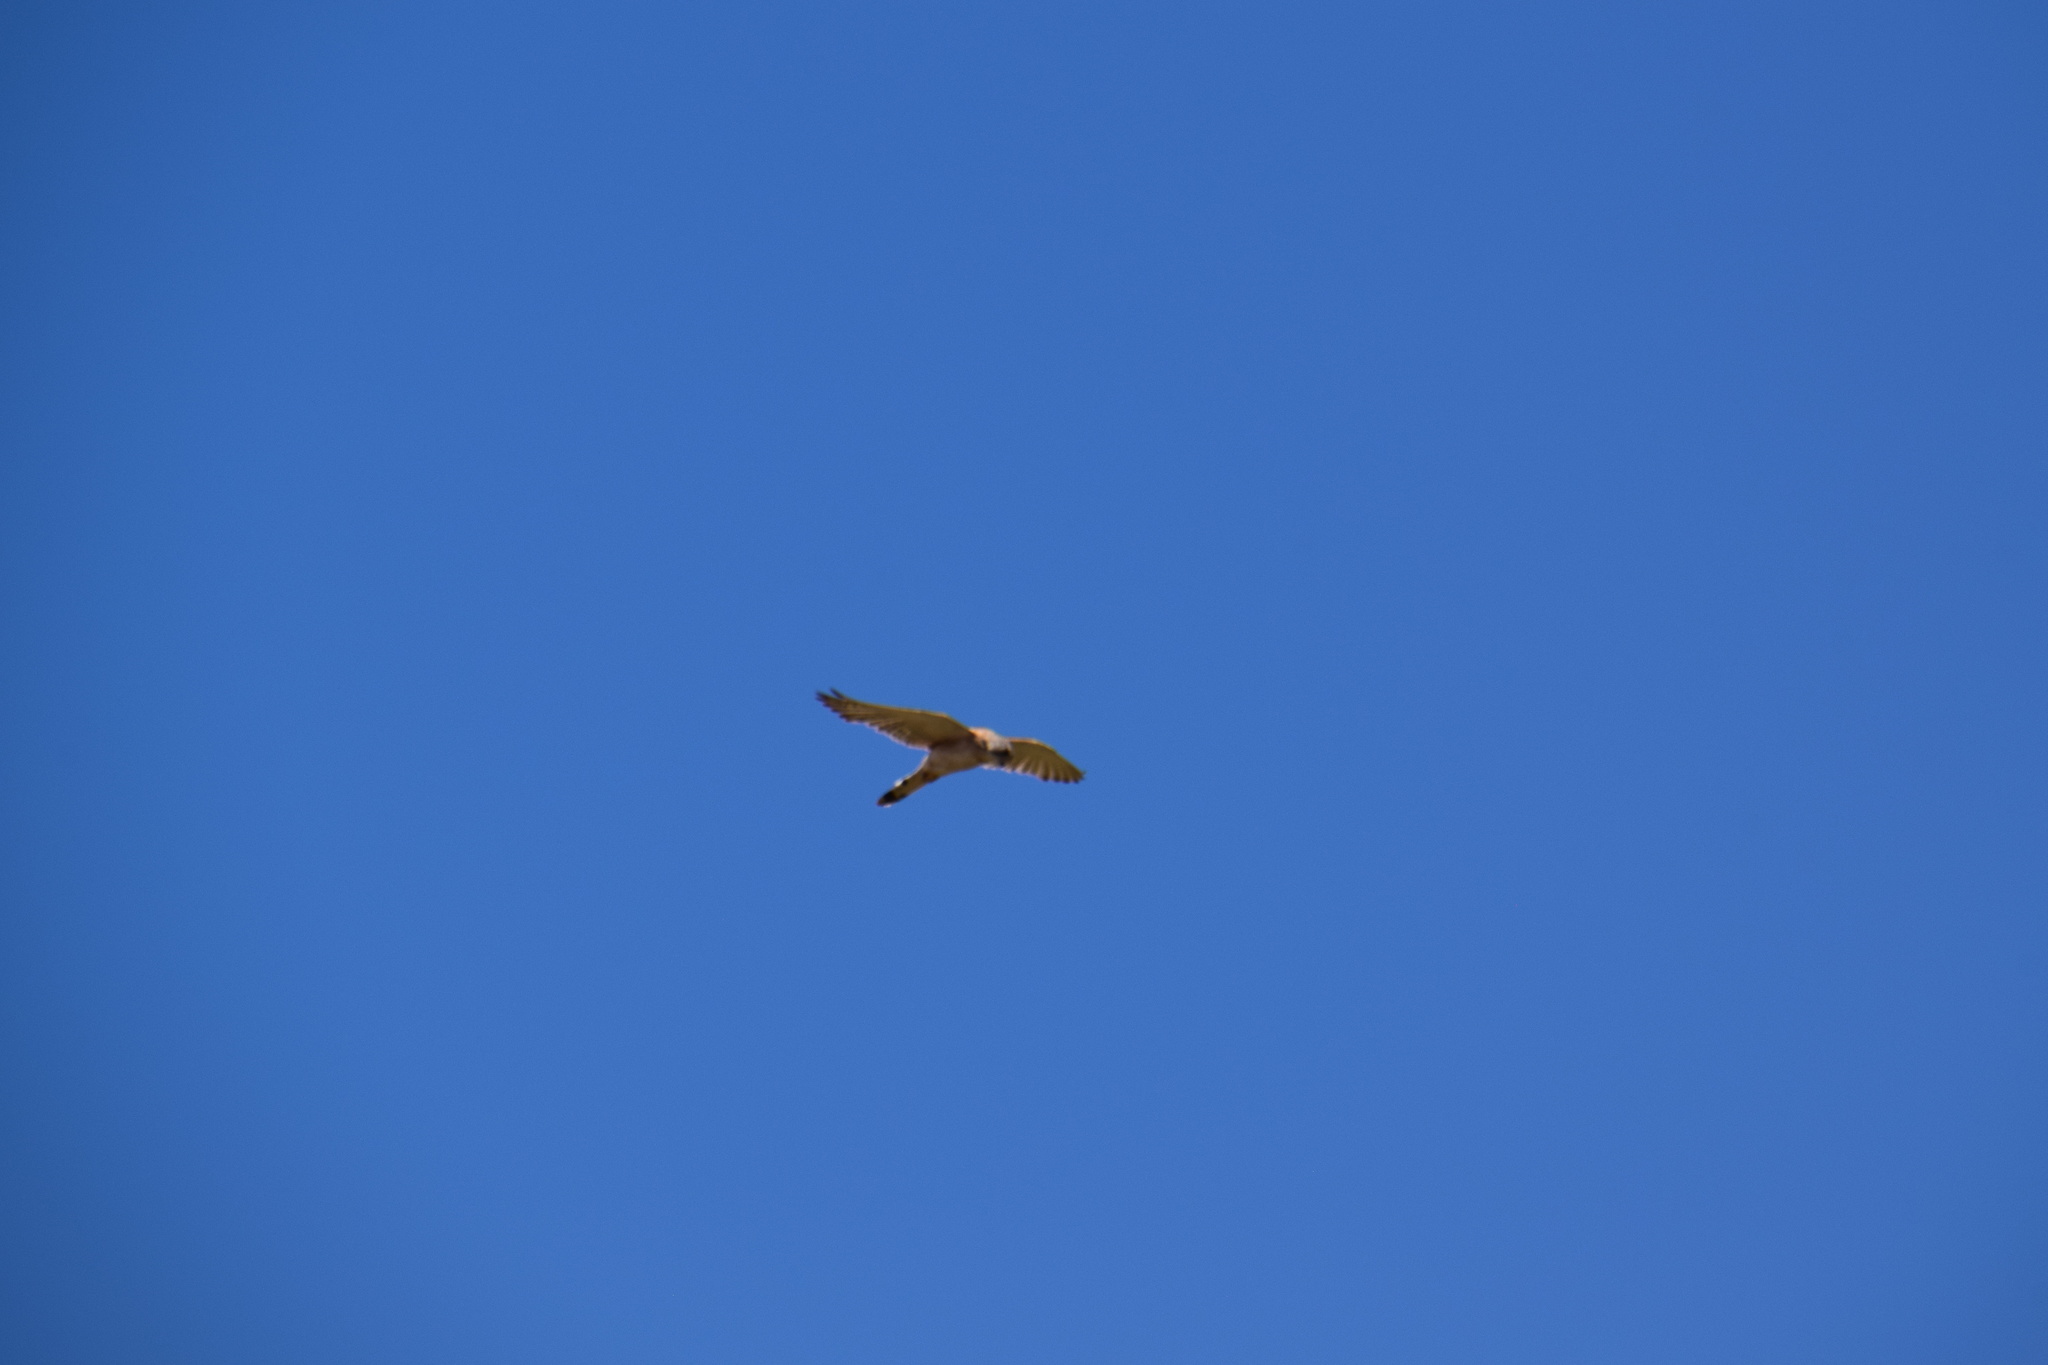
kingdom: Animalia
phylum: Chordata
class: Aves
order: Falconiformes
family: Falconidae
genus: Falco
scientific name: Falco cenchroides
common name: Nankeen kestrel
